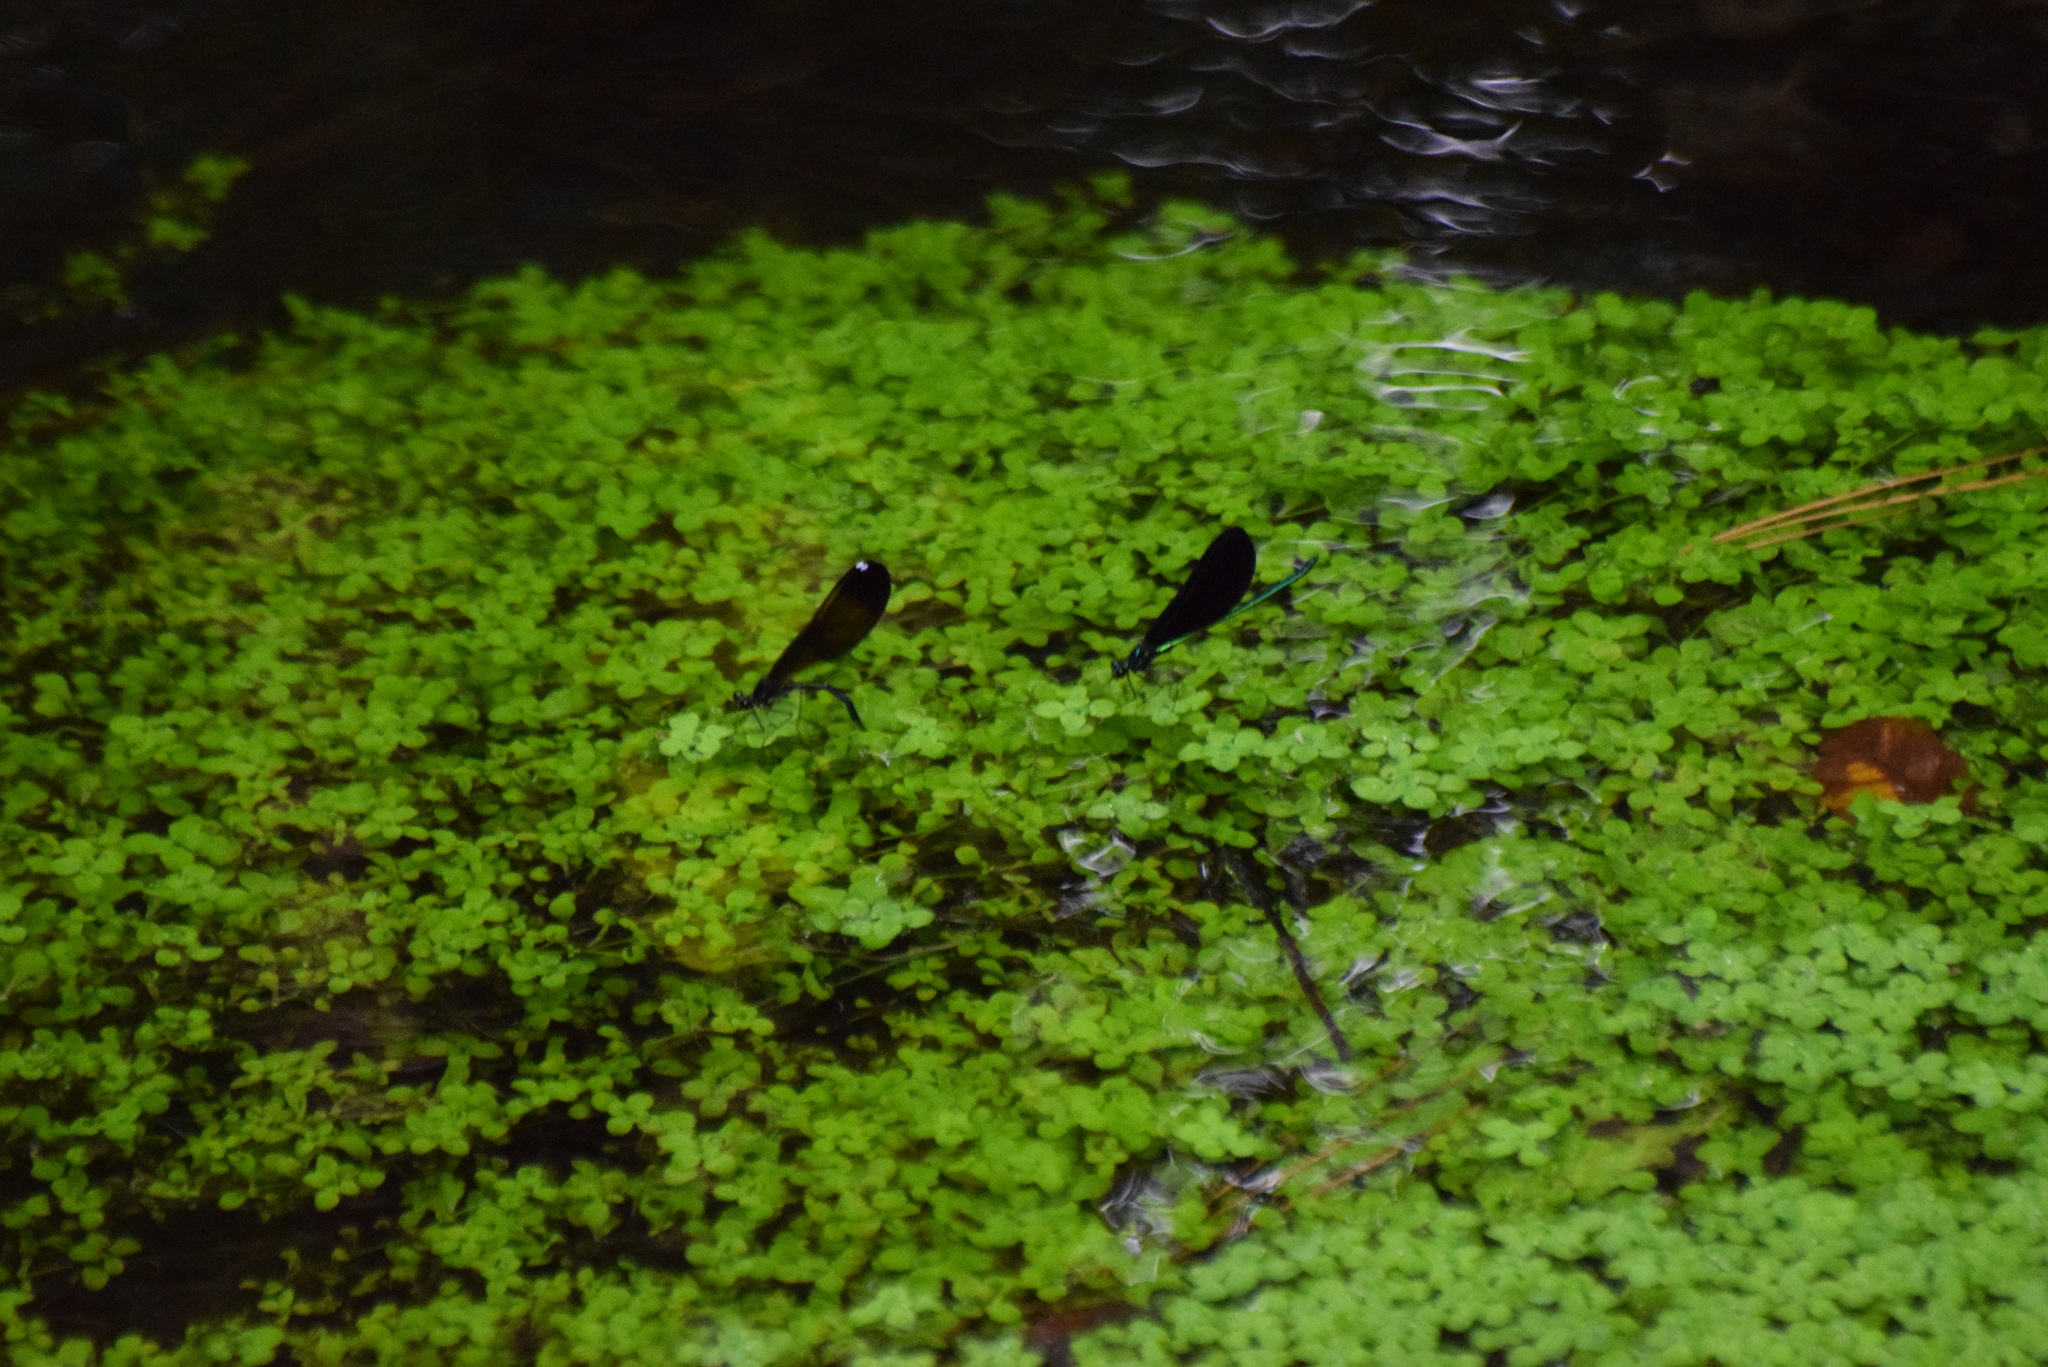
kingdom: Animalia
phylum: Arthropoda
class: Insecta
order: Odonata
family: Calopterygidae
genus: Calopteryx
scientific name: Calopteryx maculata
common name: Ebony jewelwing
